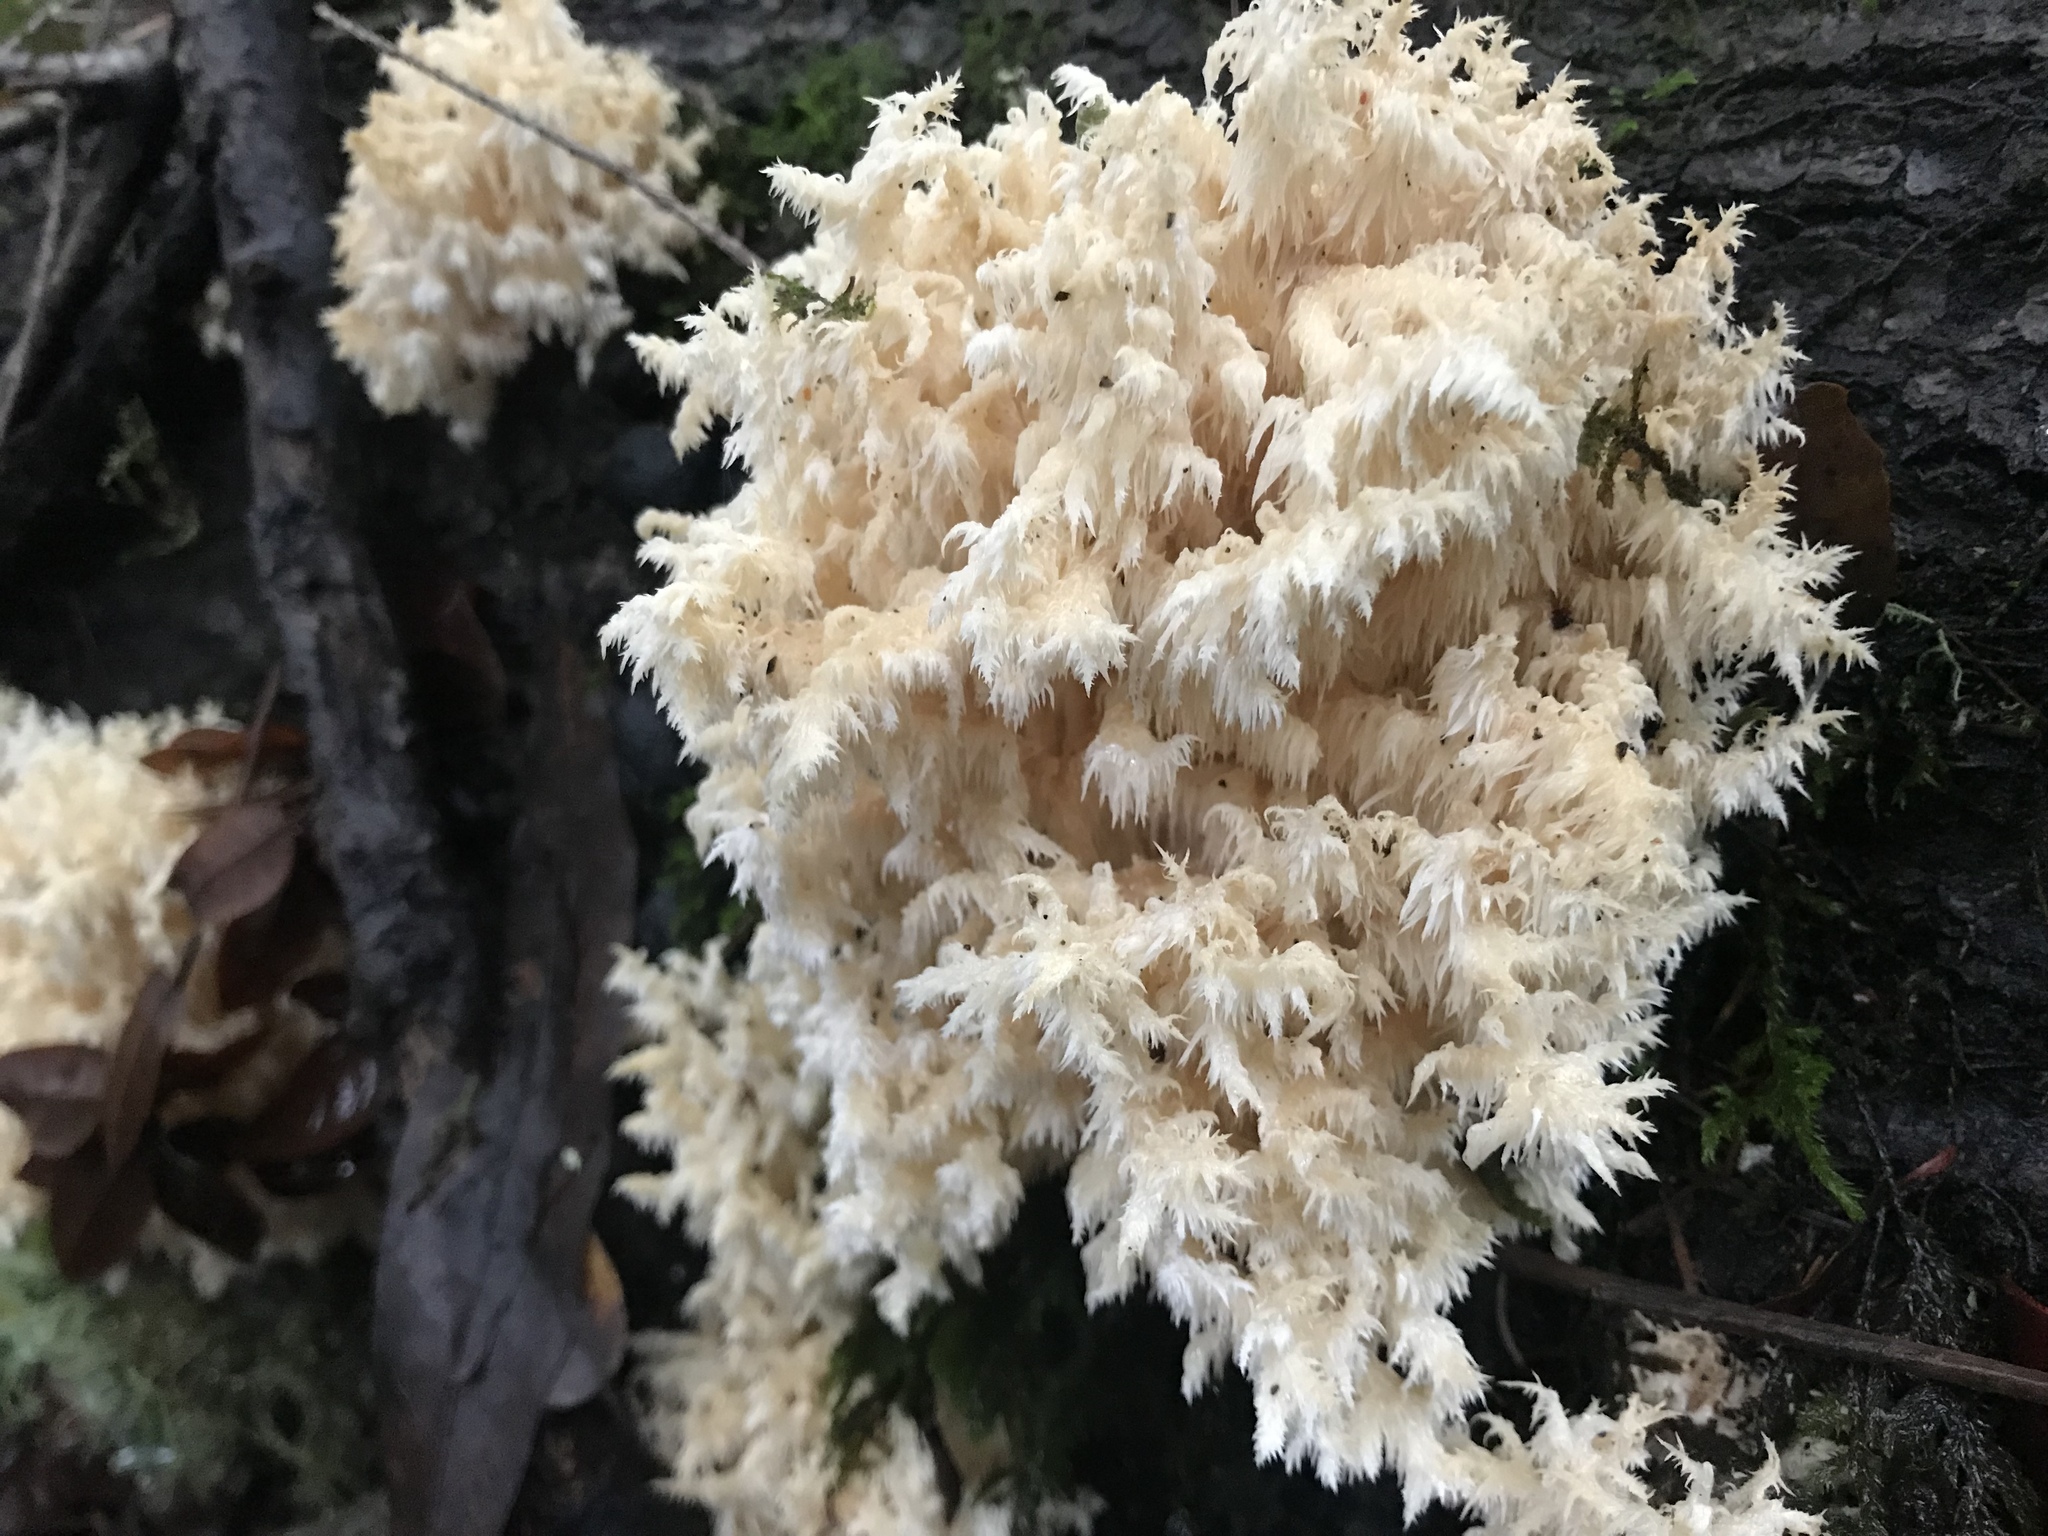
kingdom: Fungi
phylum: Basidiomycota
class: Agaricomycetes
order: Russulales
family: Hericiaceae
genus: Hericium
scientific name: Hericium coralloides
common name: Coral tooth
